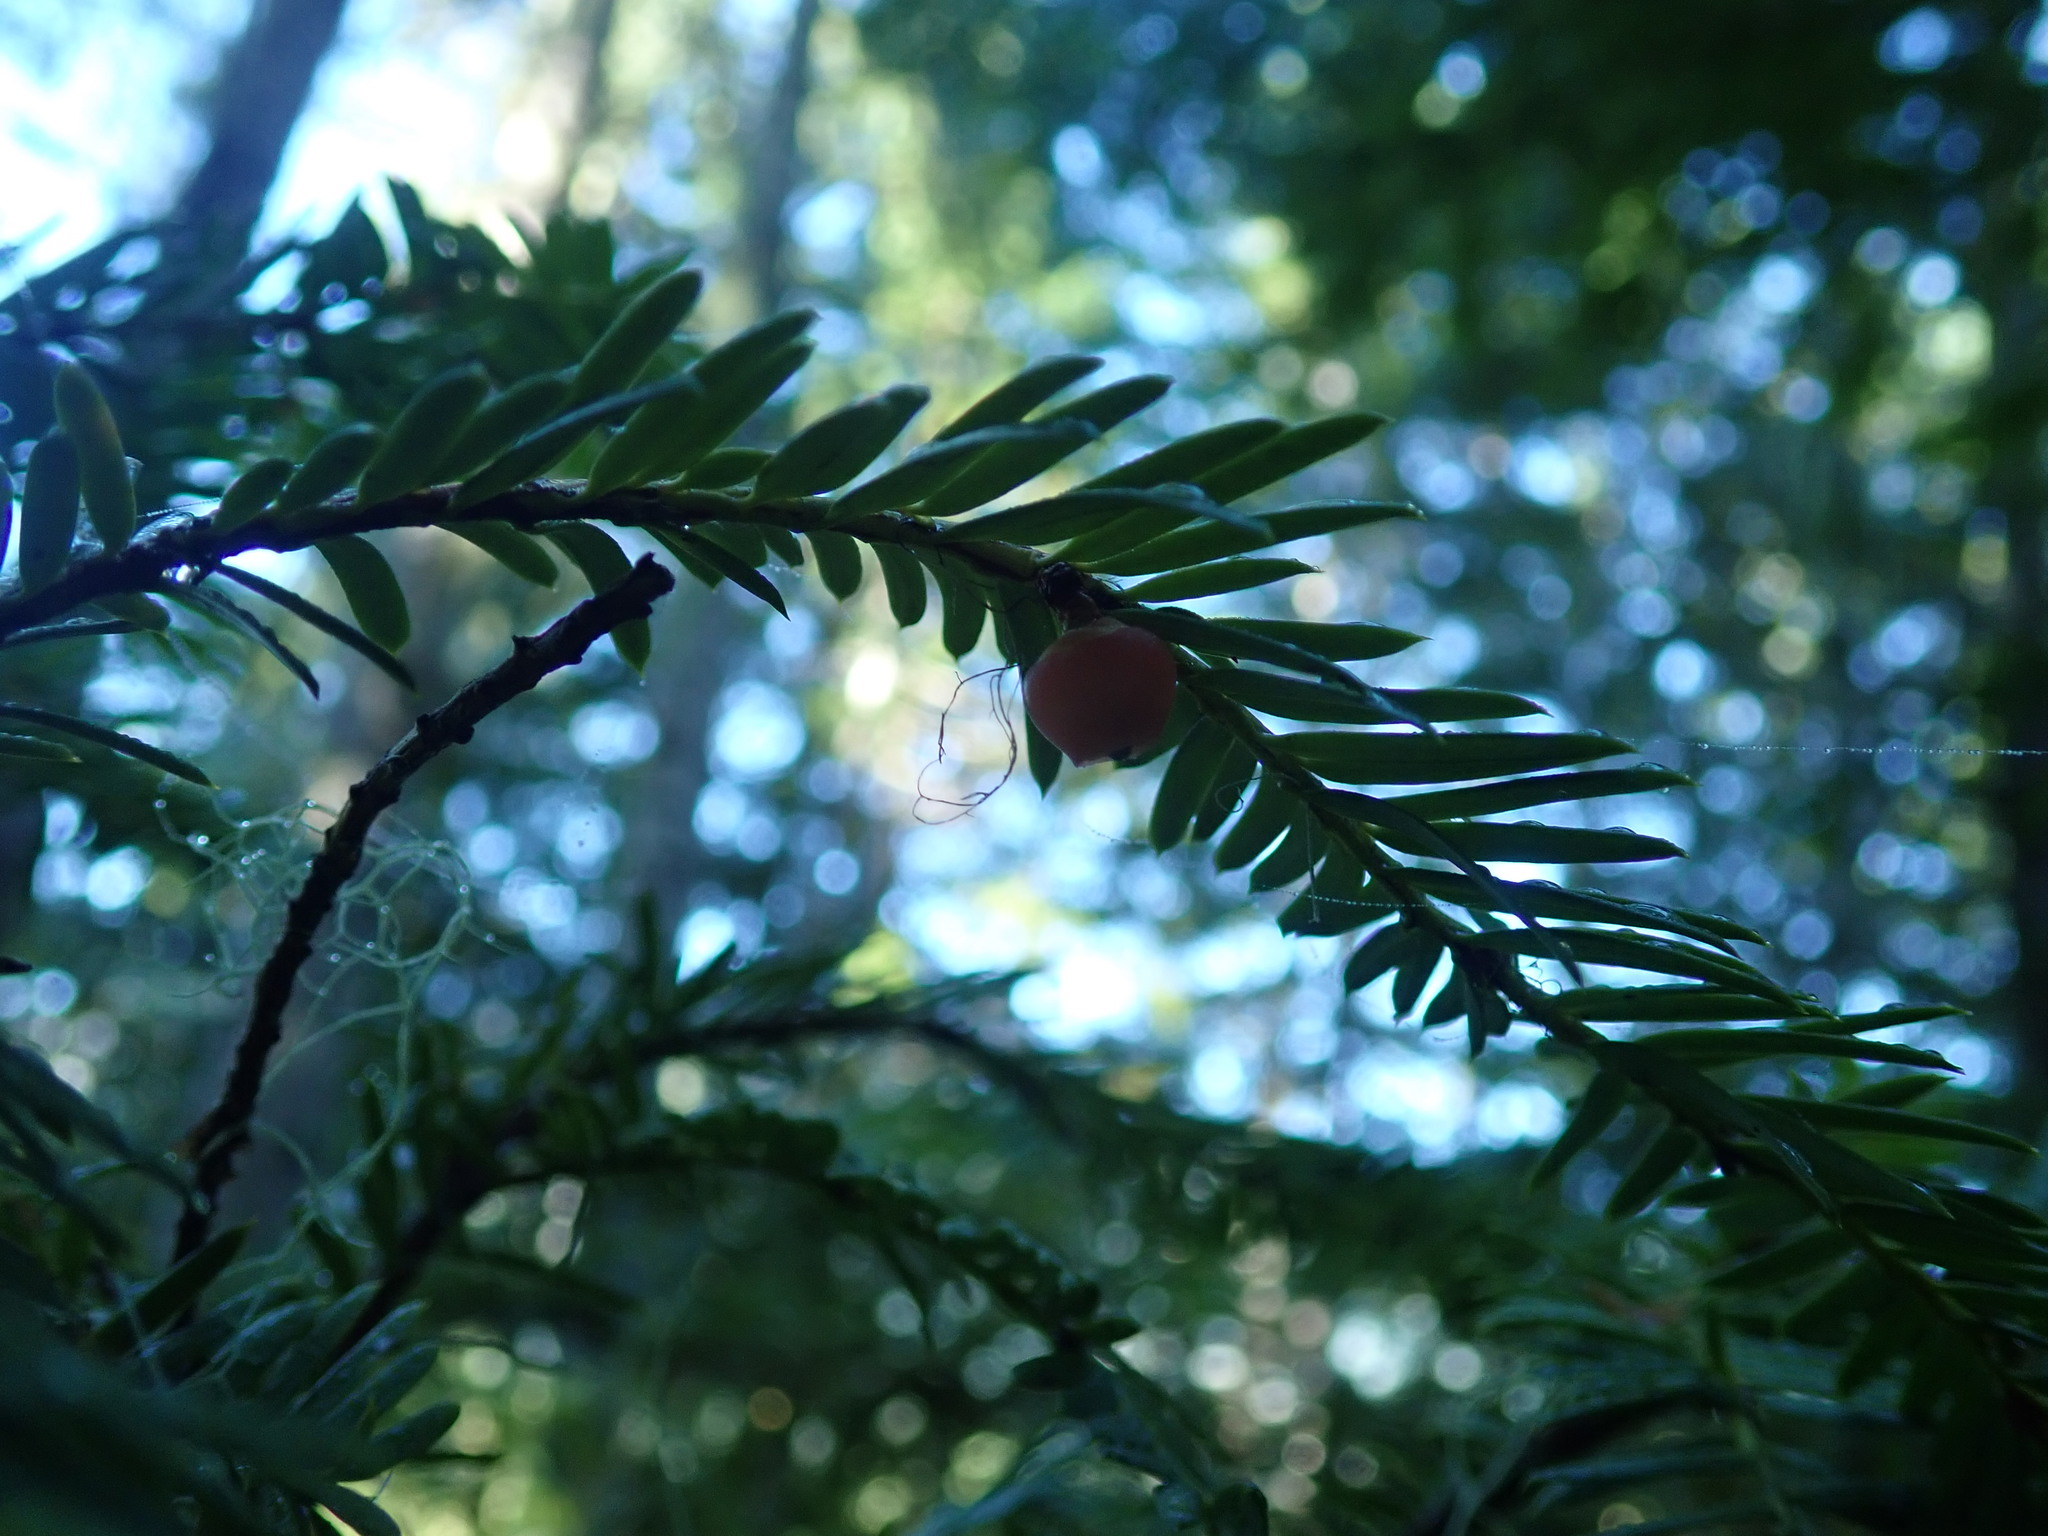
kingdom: Plantae
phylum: Tracheophyta
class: Pinopsida
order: Pinales
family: Taxaceae
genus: Taxus
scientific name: Taxus brevifolia
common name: Pacific yew
